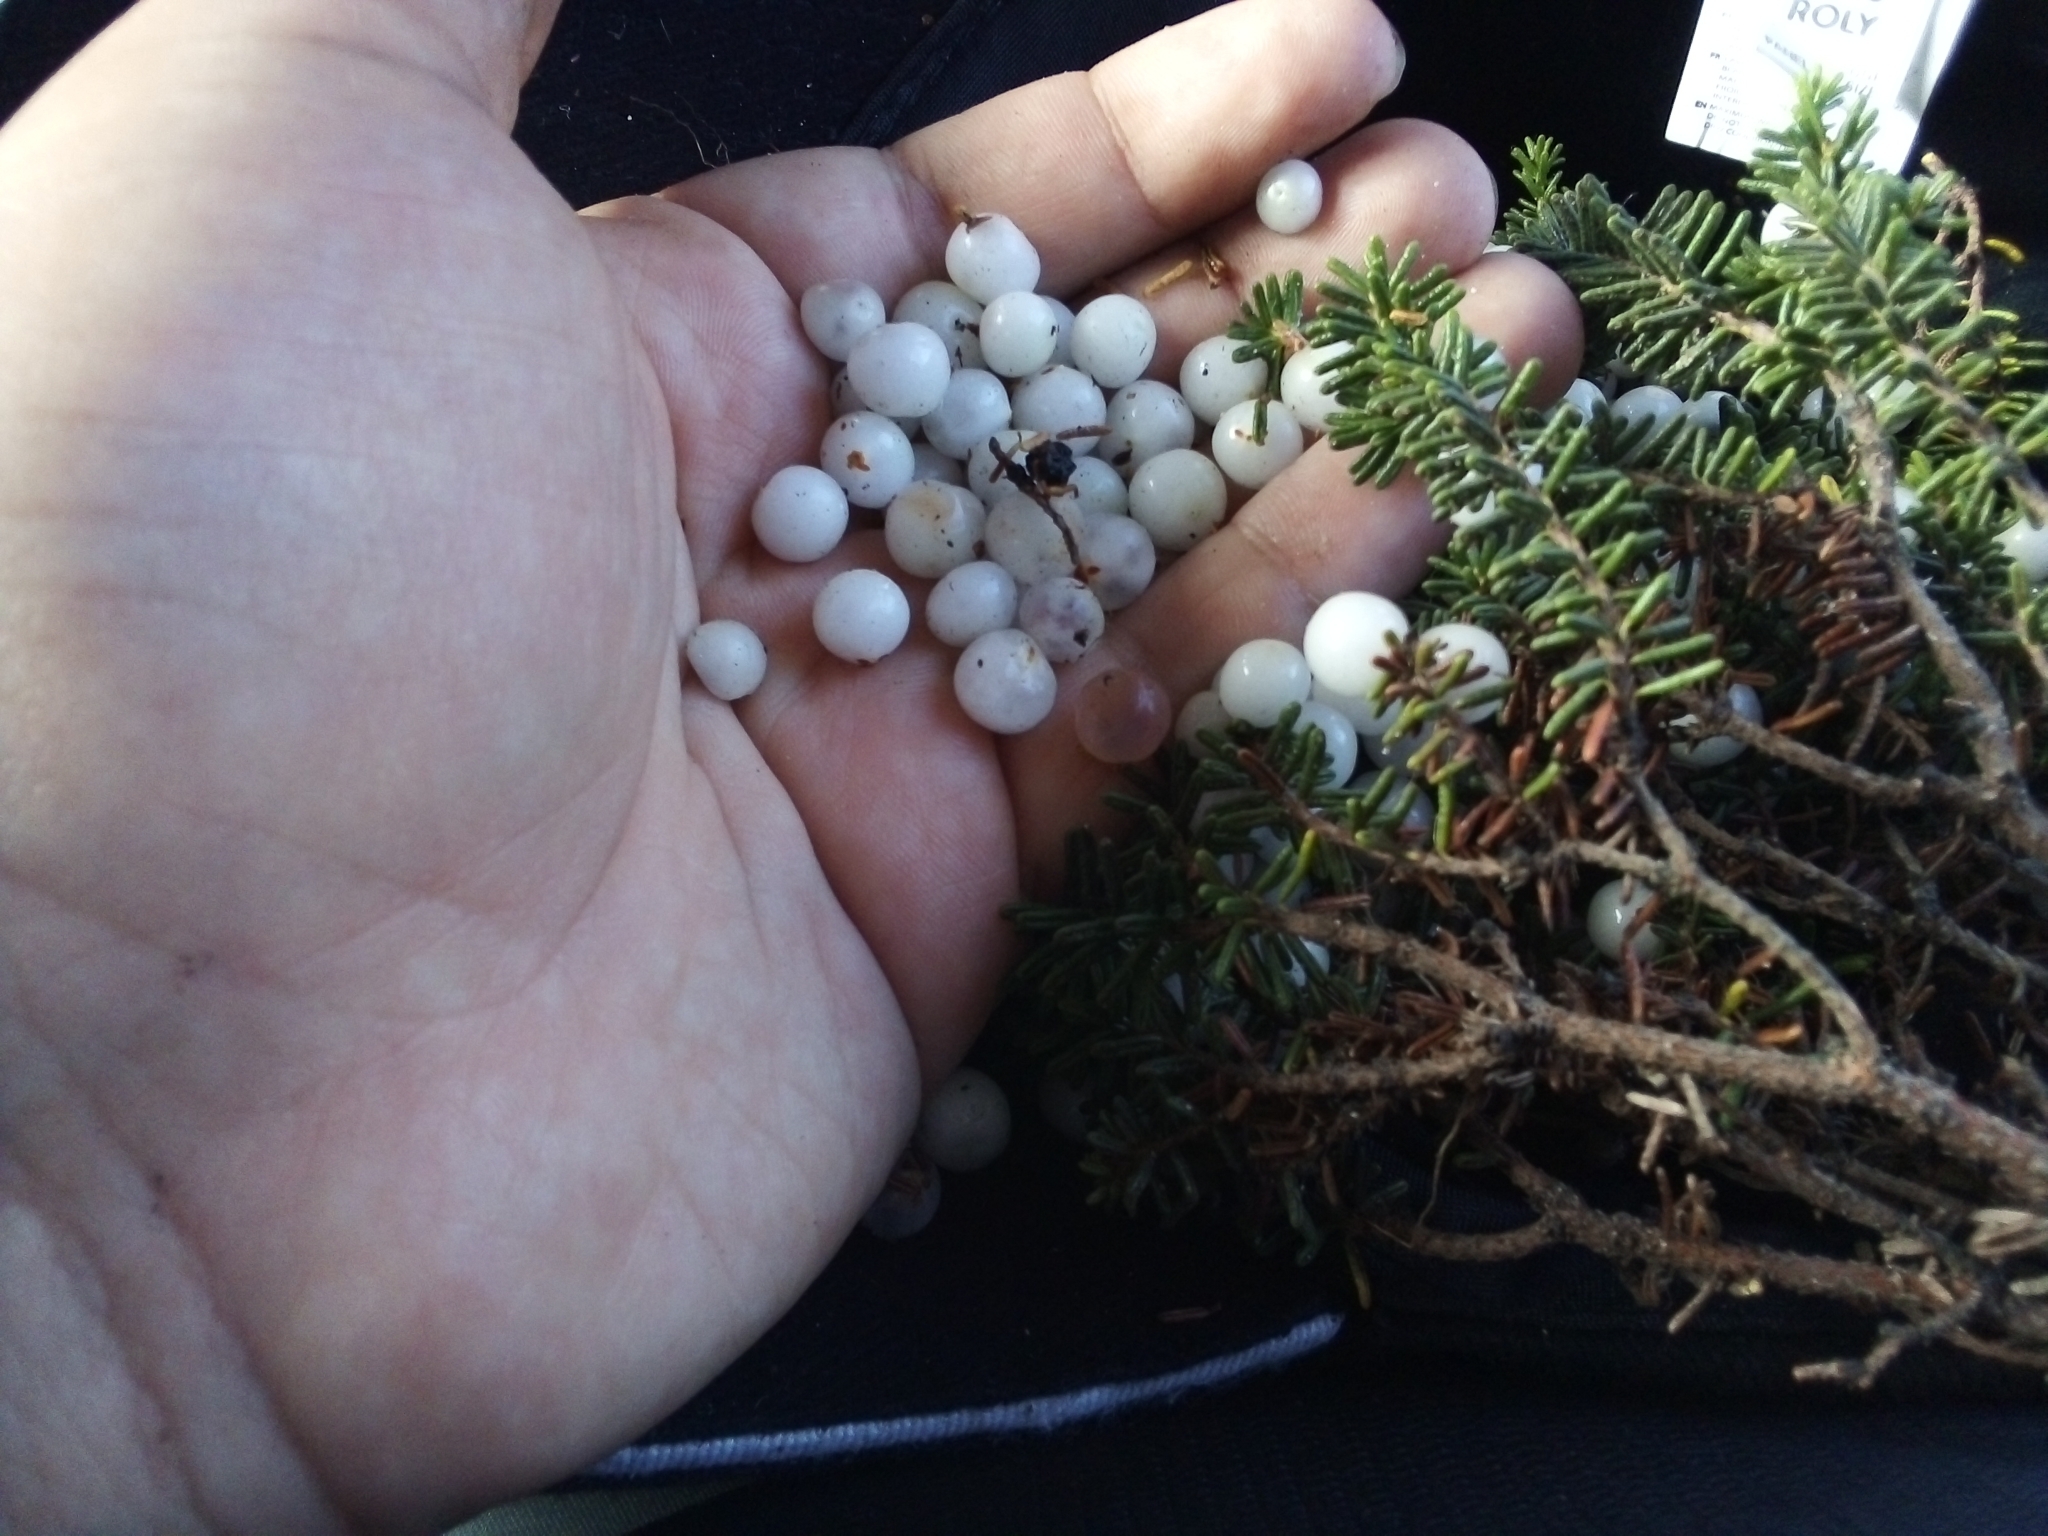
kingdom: Plantae
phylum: Tracheophyta
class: Magnoliopsida
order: Ericales
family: Ericaceae
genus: Corema
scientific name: Corema album
